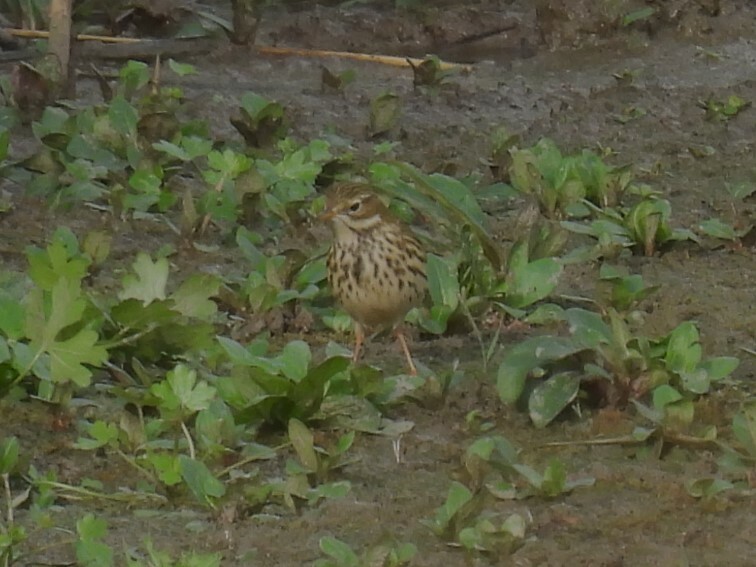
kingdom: Animalia
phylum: Chordata
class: Aves
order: Passeriformes
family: Motacillidae
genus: Anthus
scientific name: Anthus pratensis
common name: Meadow pipit
